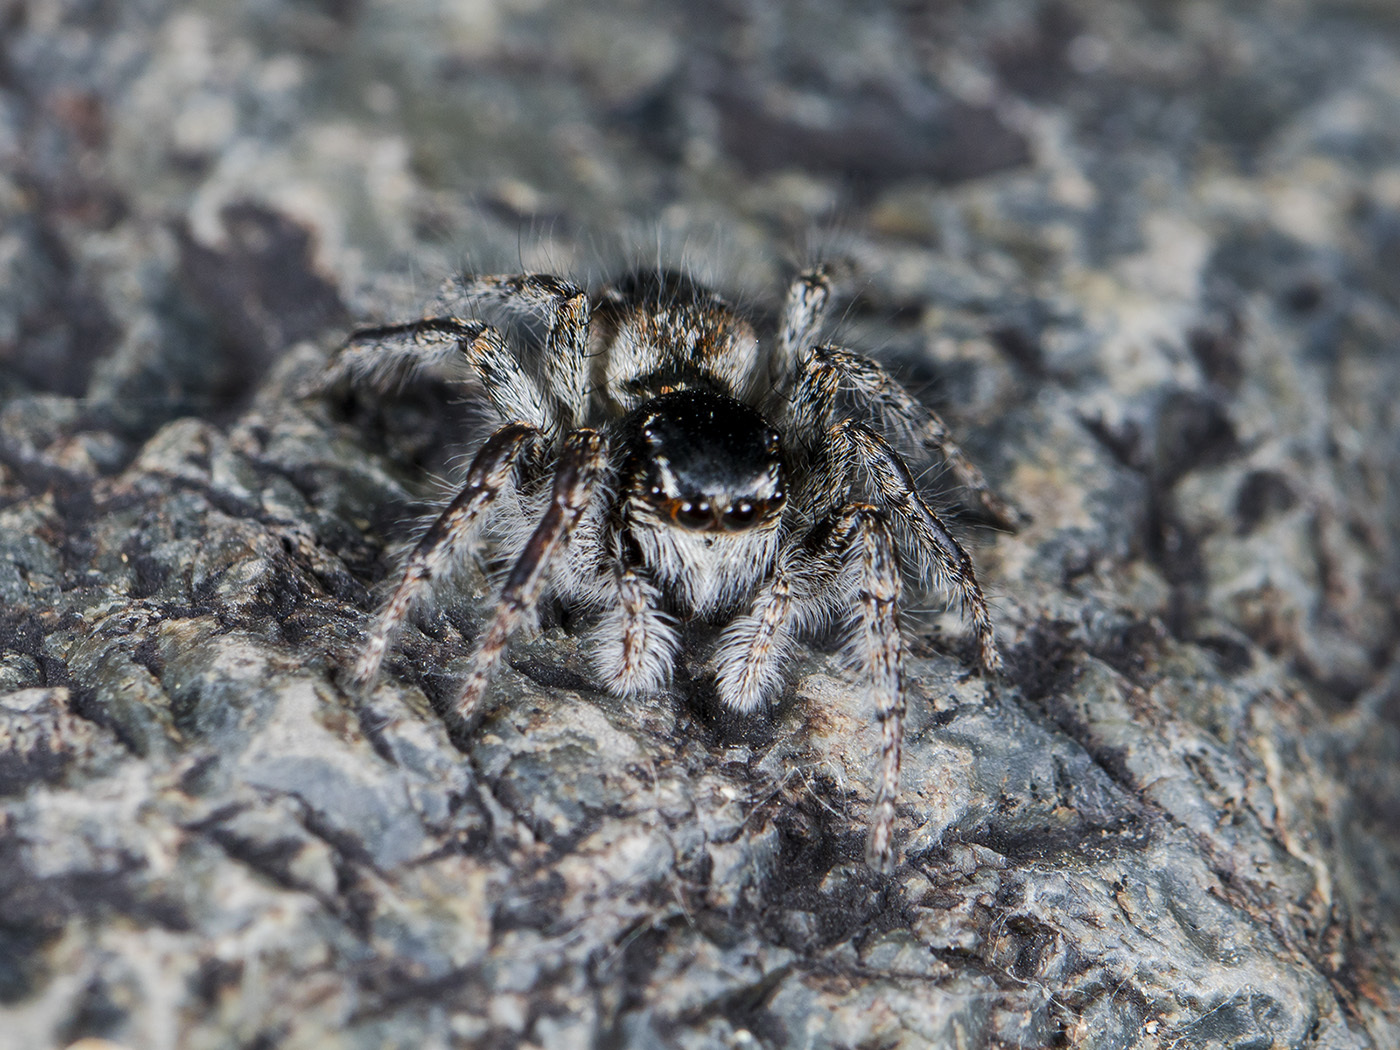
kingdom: Animalia
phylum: Arthropoda
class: Arachnida
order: Araneae
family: Salticidae
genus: Philaeus
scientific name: Philaeus chrysops
